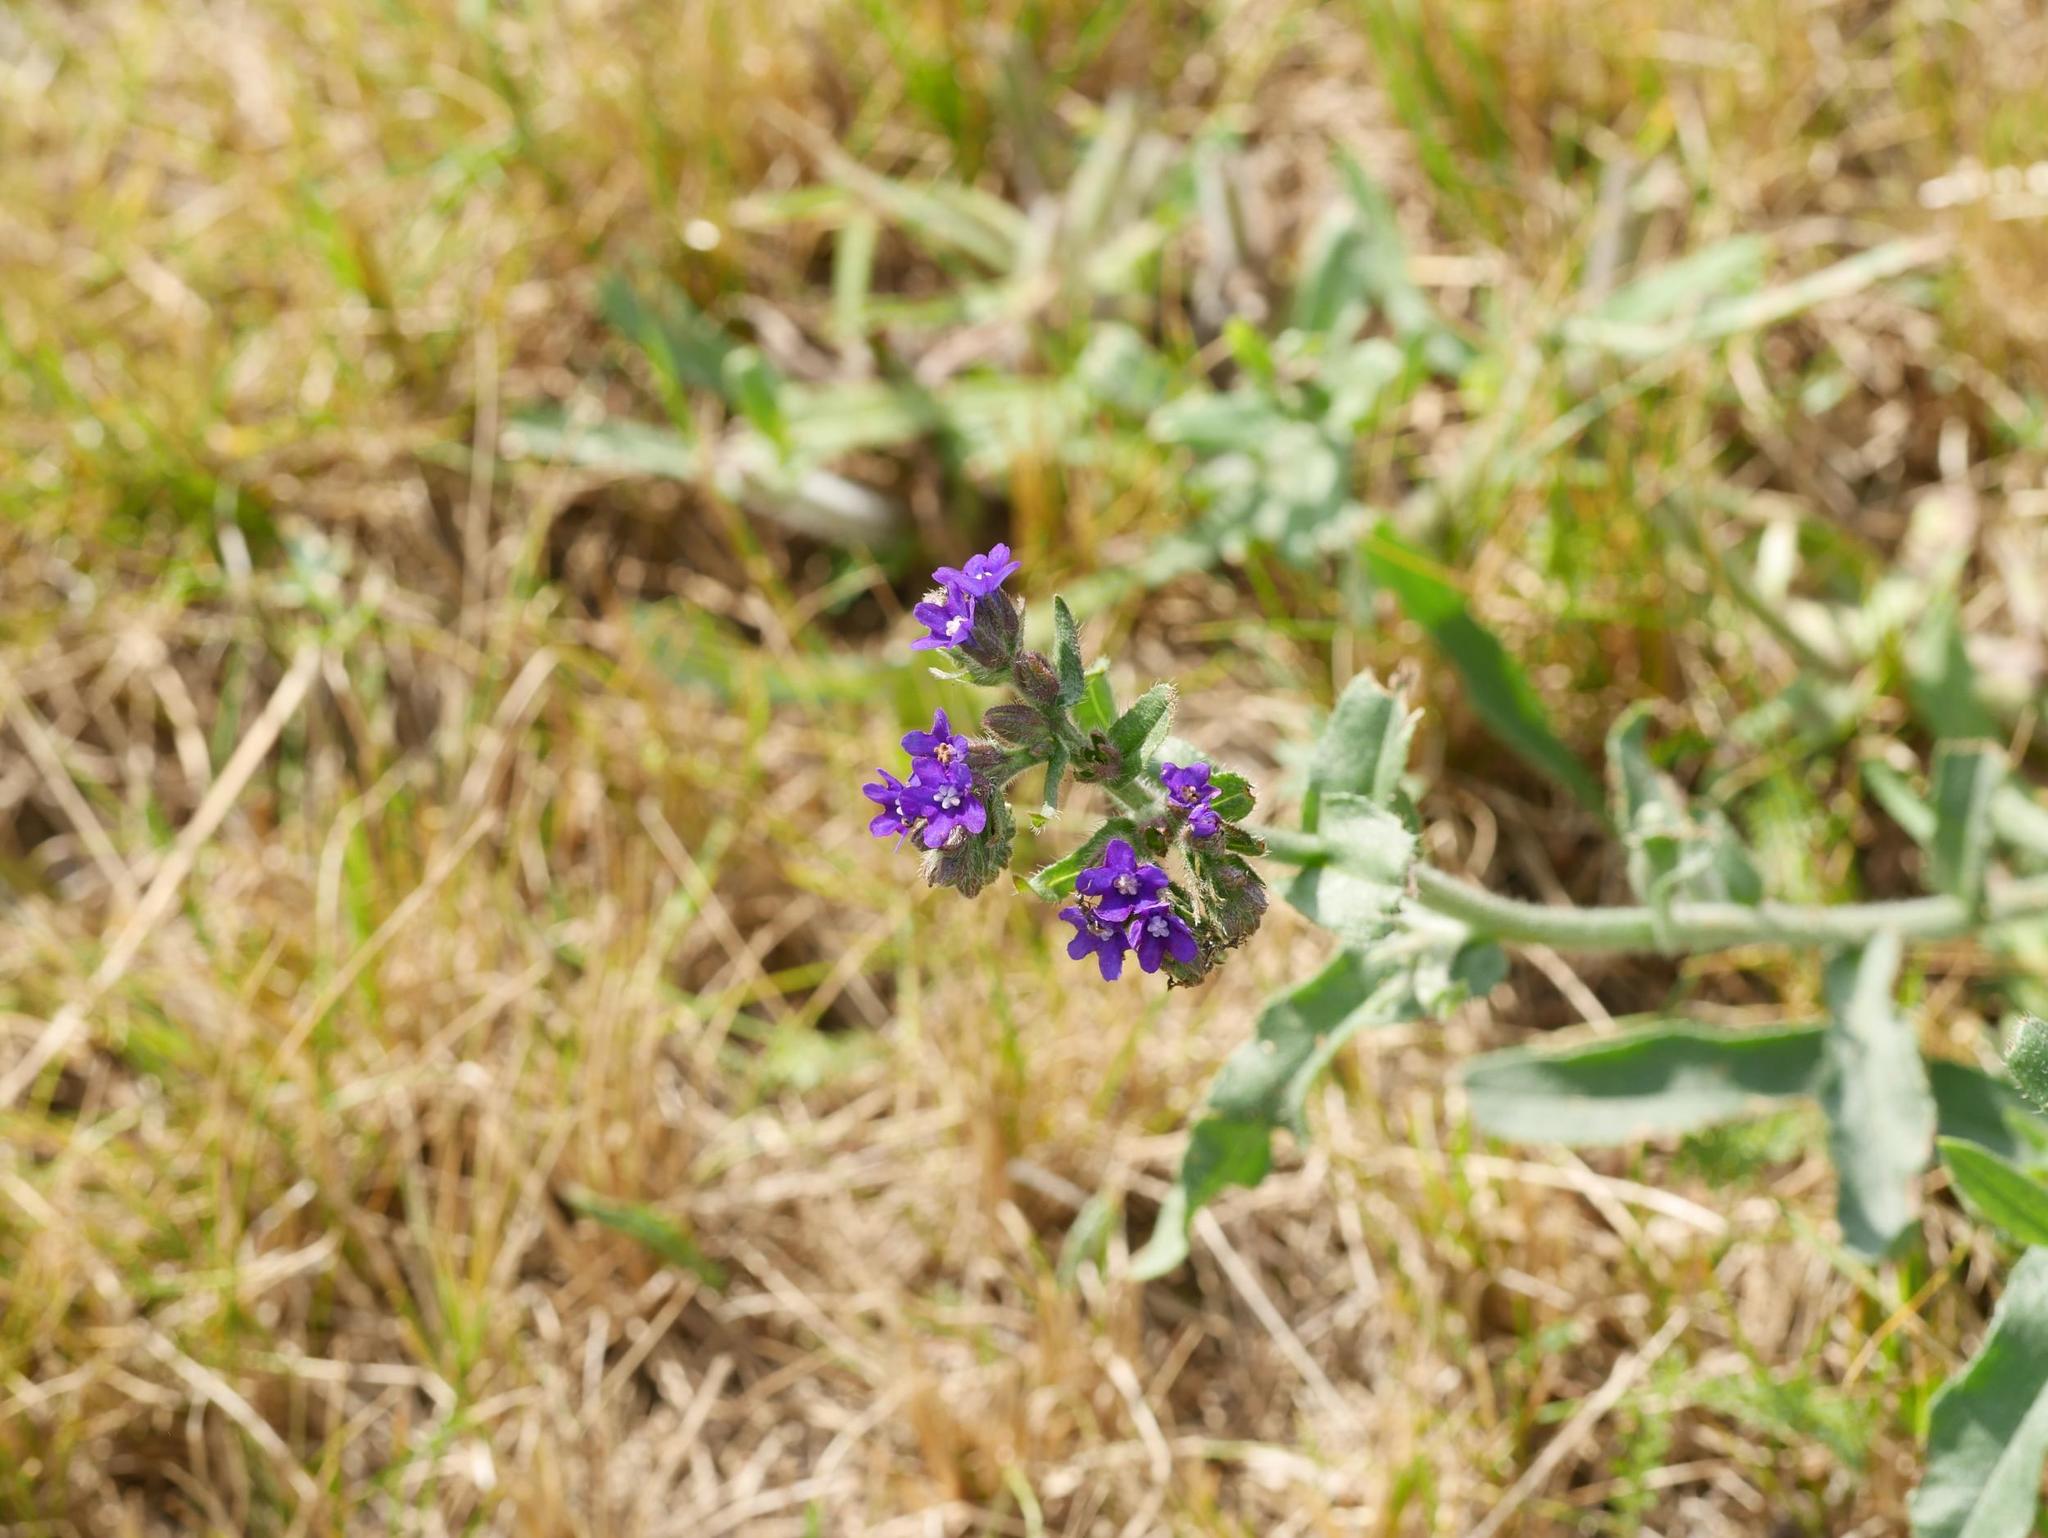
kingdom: Plantae
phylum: Tracheophyta
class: Magnoliopsida
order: Boraginales
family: Boraginaceae
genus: Anchusa
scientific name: Anchusa officinalis
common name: Alkanet
